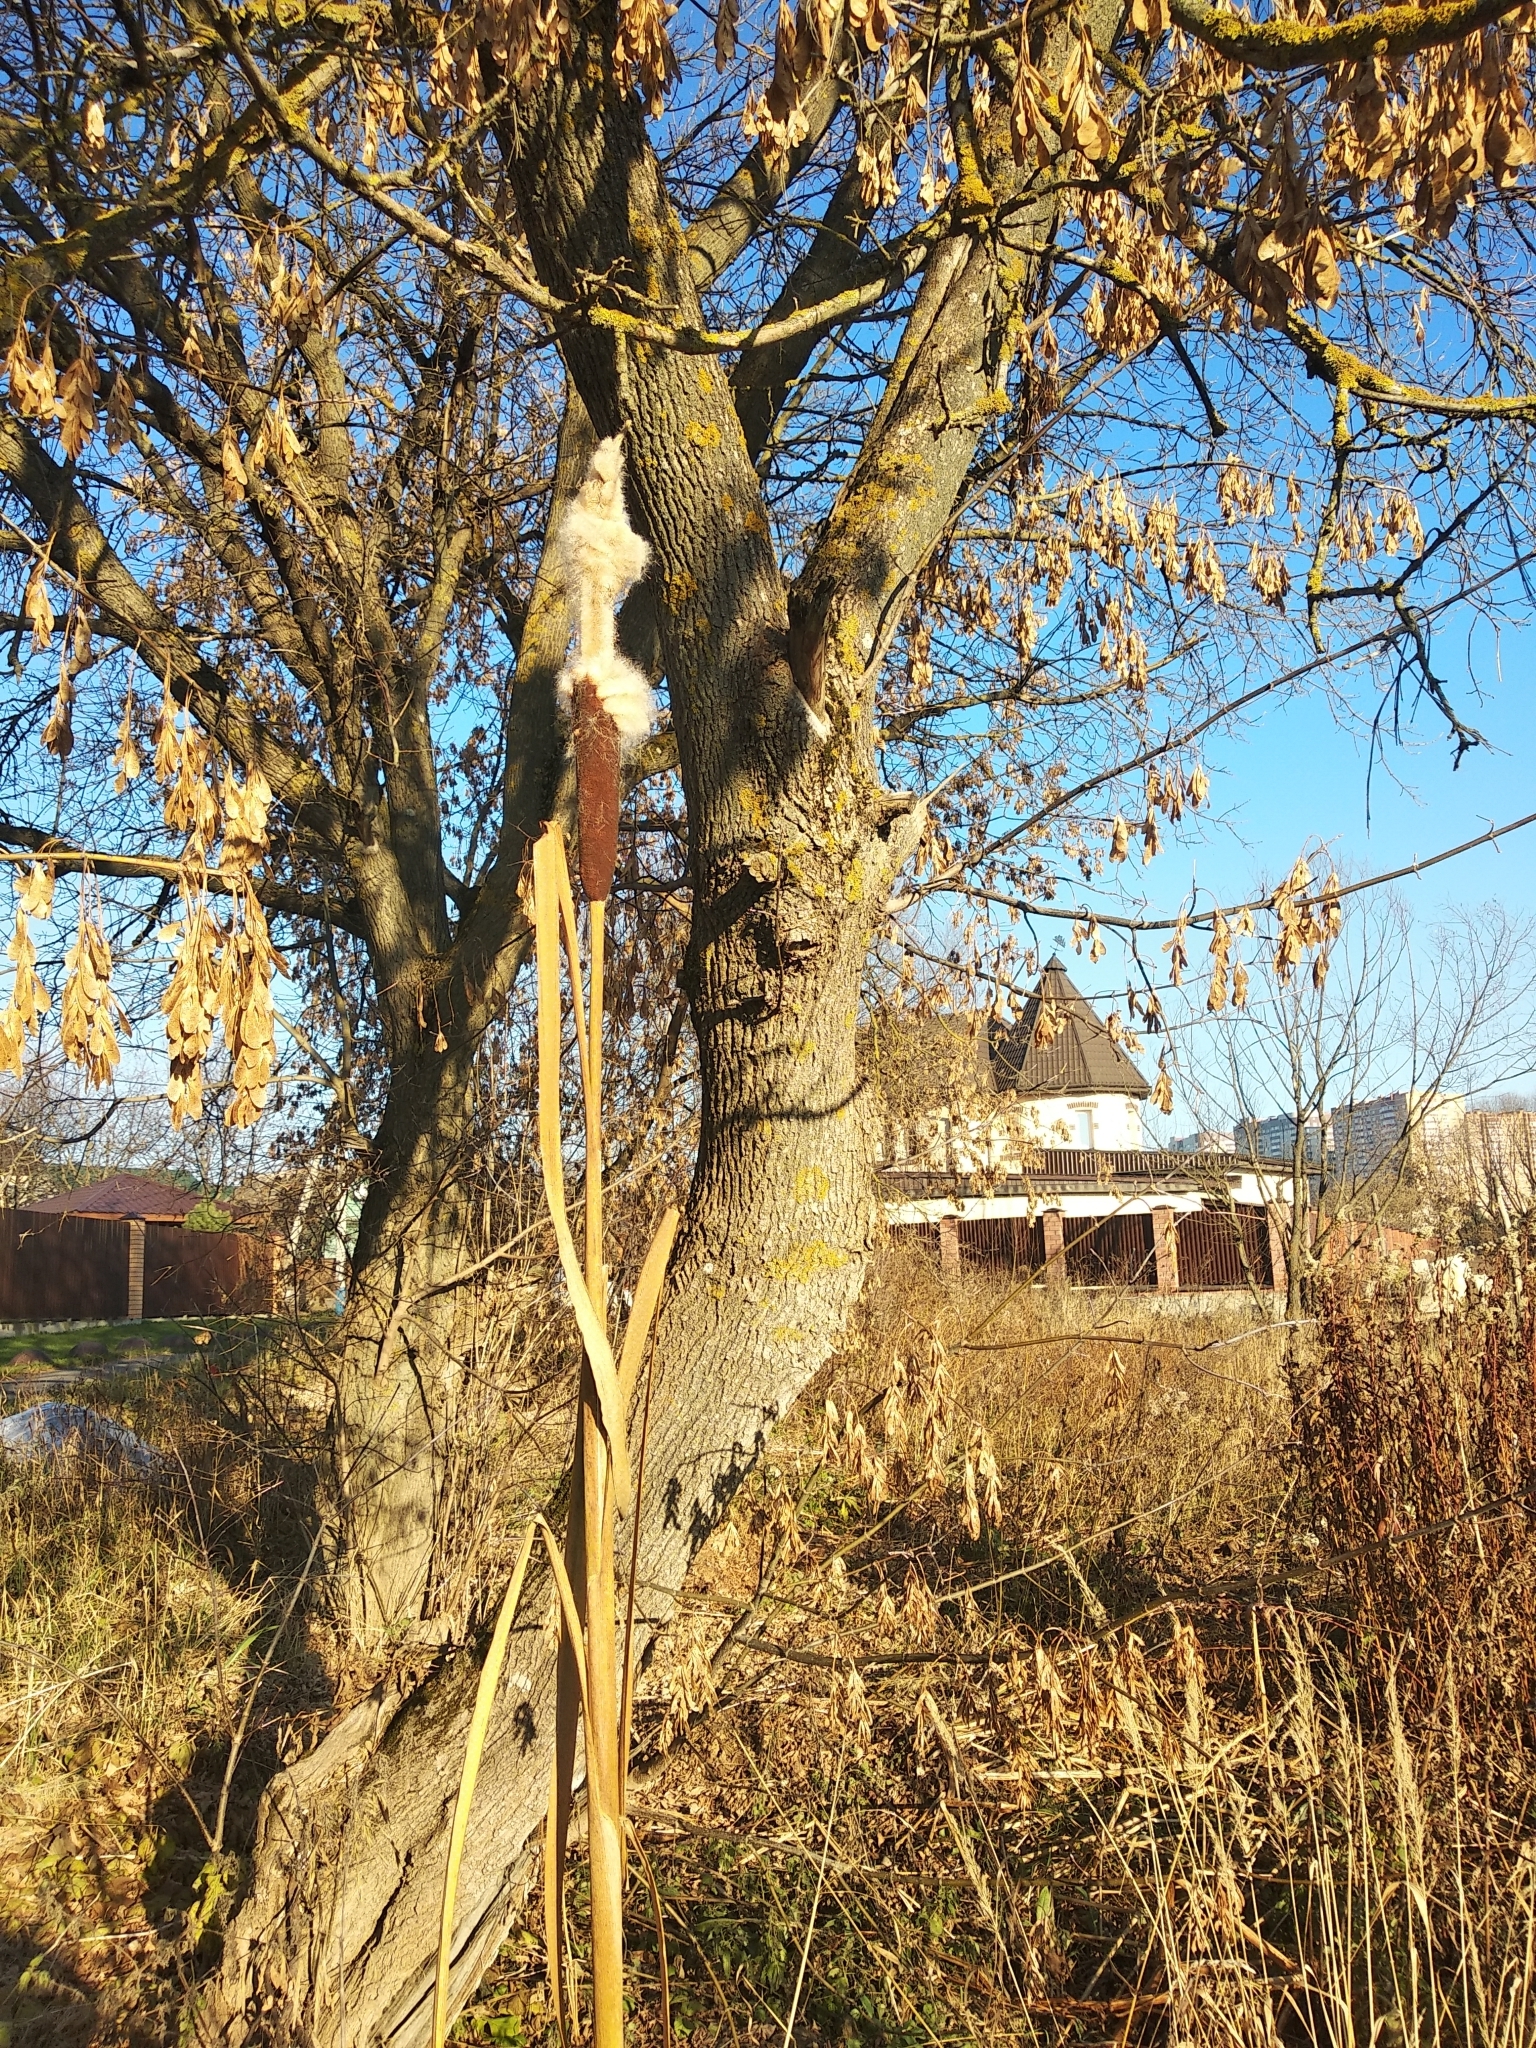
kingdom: Plantae
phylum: Tracheophyta
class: Liliopsida
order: Poales
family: Typhaceae
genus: Typha
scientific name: Typha latifolia
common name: Broadleaf cattail
